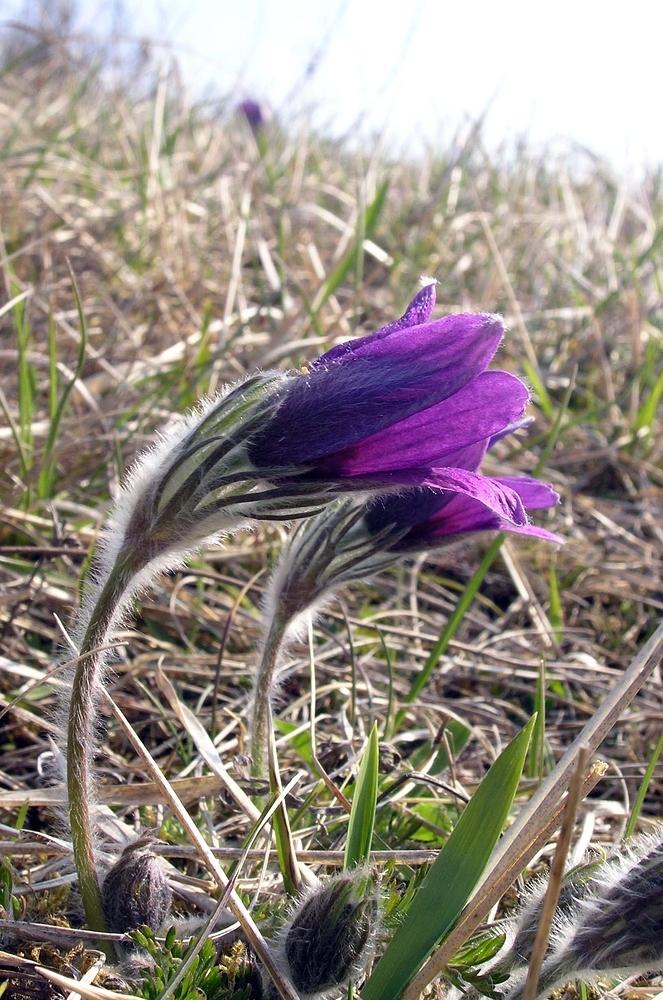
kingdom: Plantae
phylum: Tracheophyta
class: Magnoliopsida
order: Ranunculales
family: Ranunculaceae
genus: Pulsatilla
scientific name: Pulsatilla vulgaris
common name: Pasqueflower
